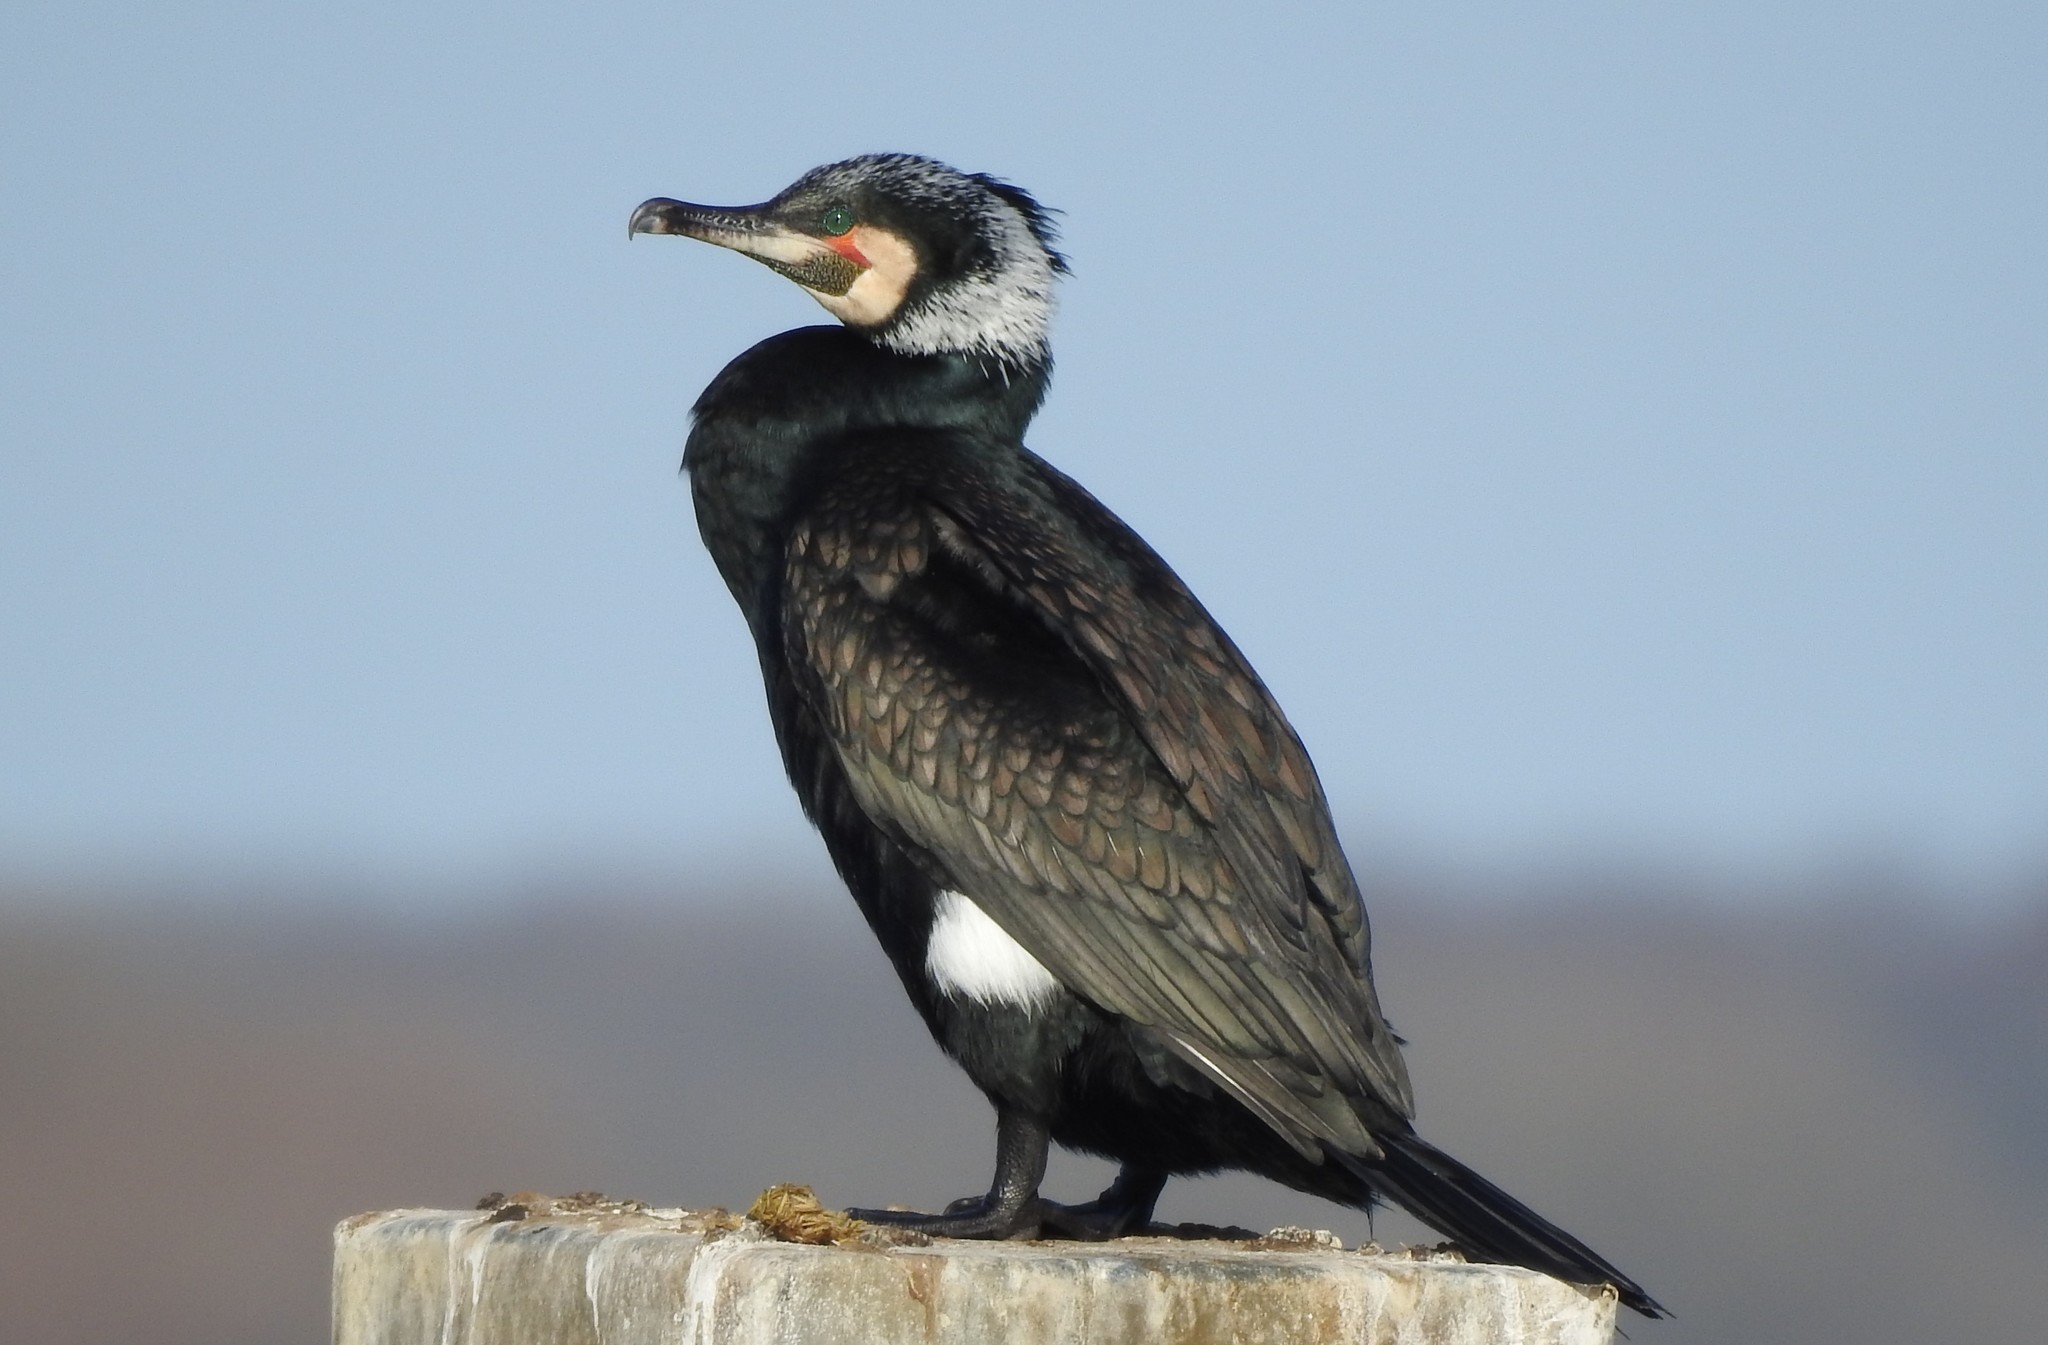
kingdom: Animalia
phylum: Chordata
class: Aves
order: Suliformes
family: Phalacrocoracidae
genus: Phalacrocorax
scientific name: Phalacrocorax carbo
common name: Great cormorant
